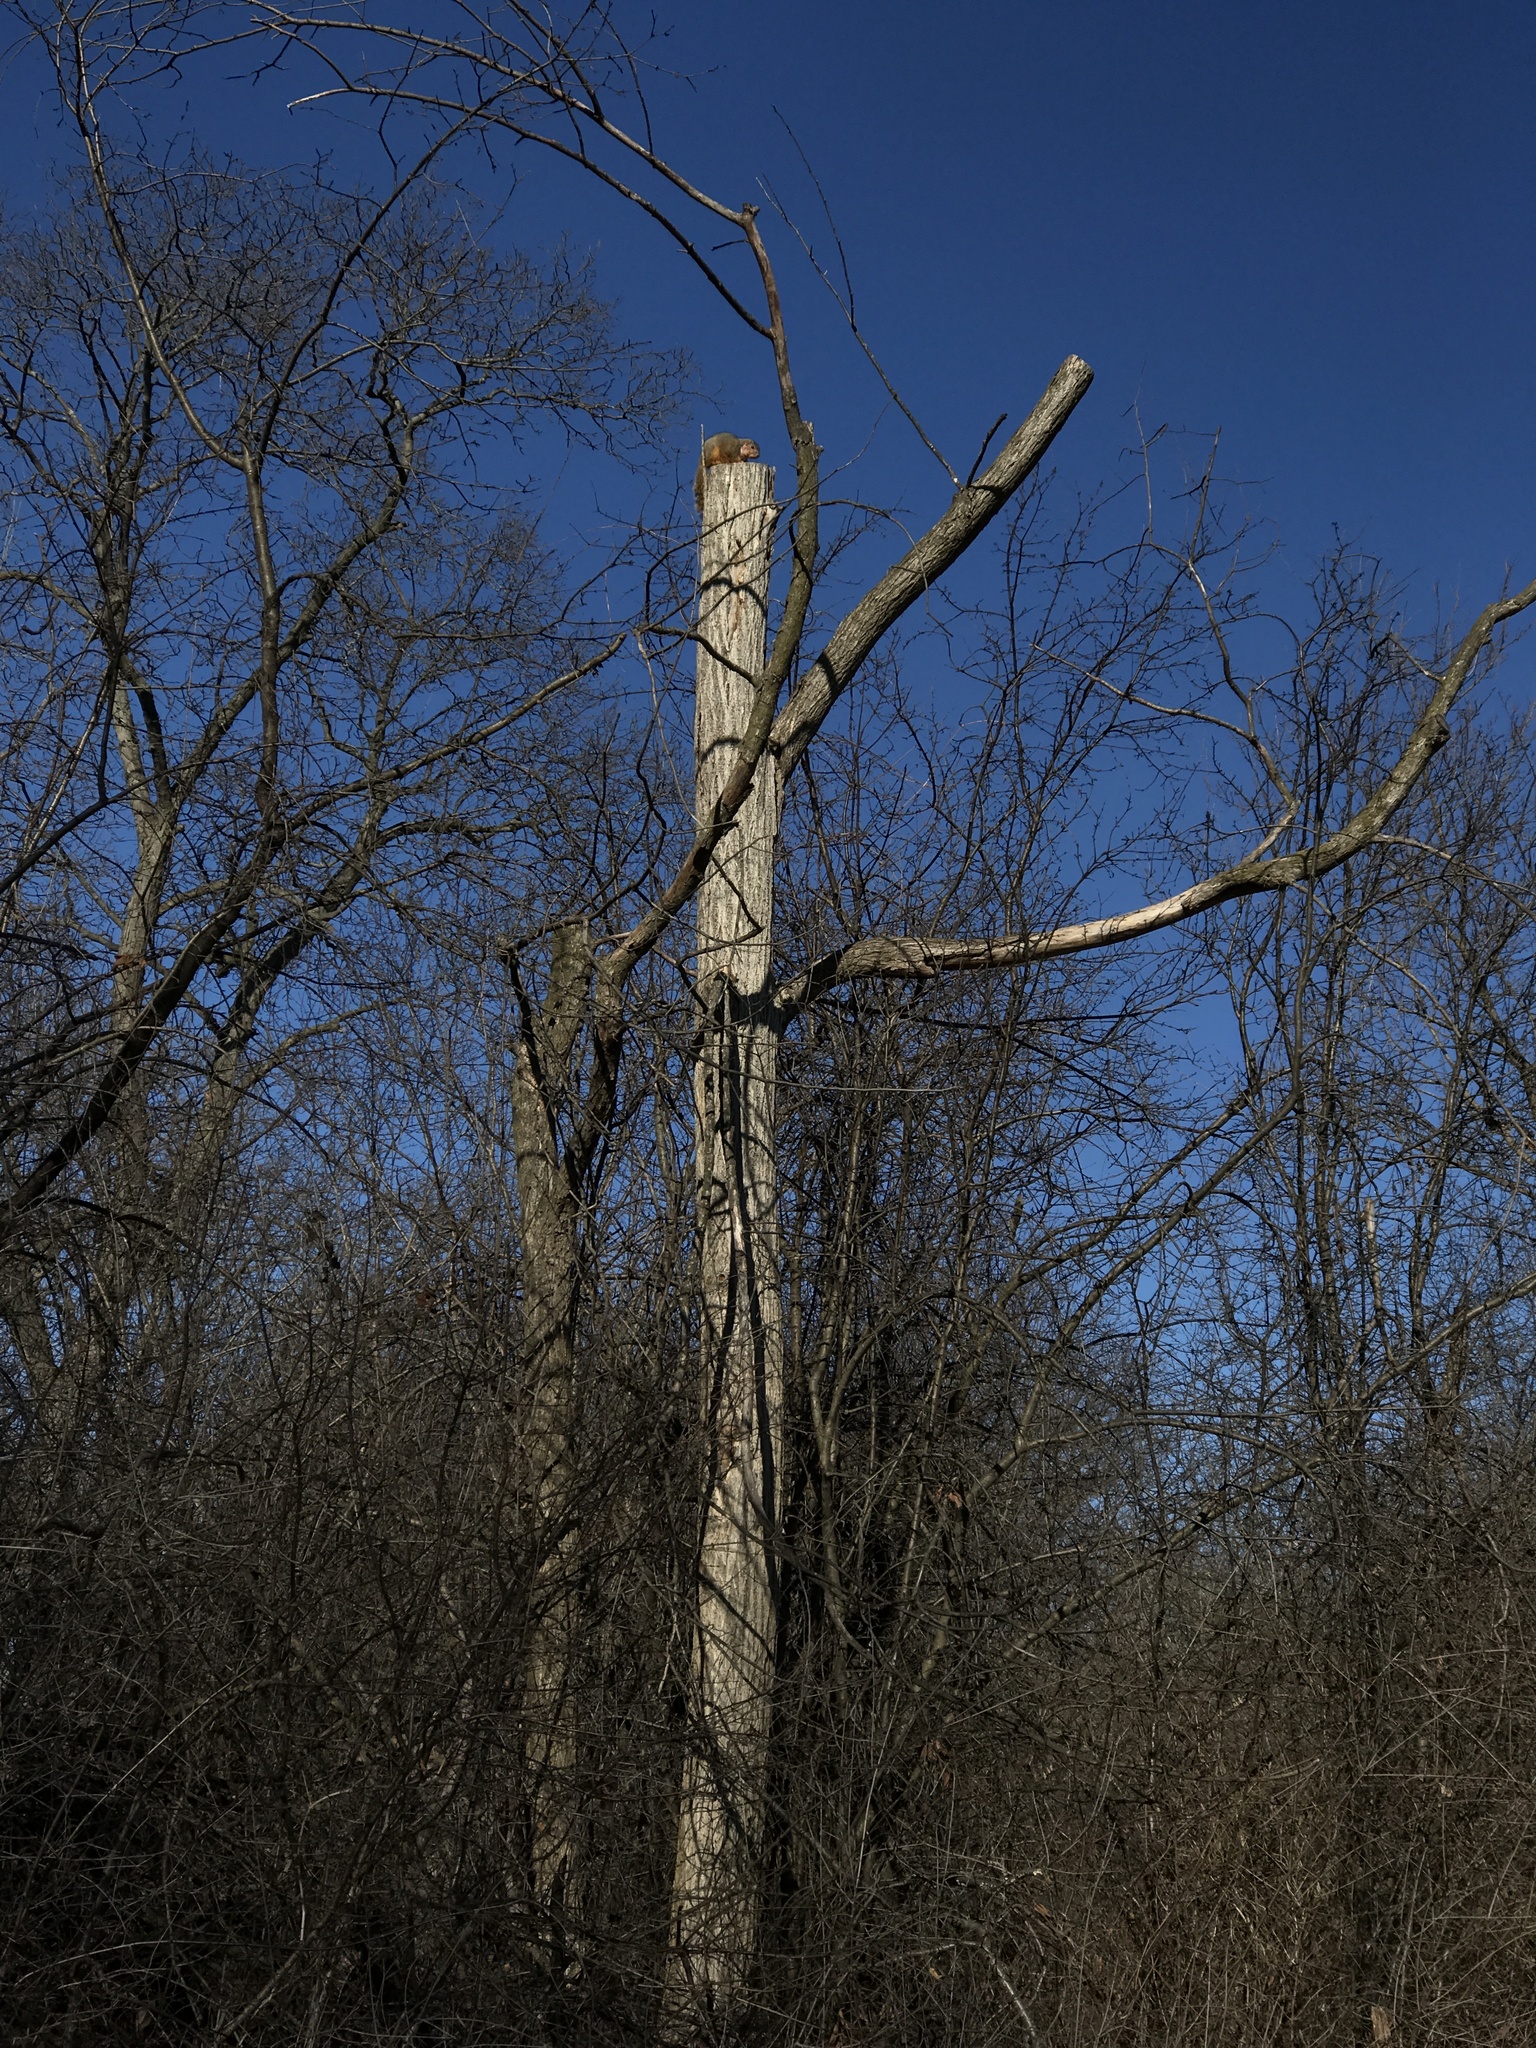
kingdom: Animalia
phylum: Chordata
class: Mammalia
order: Rodentia
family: Sciuridae
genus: Sciurus
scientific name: Sciurus niger
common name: Fox squirrel
